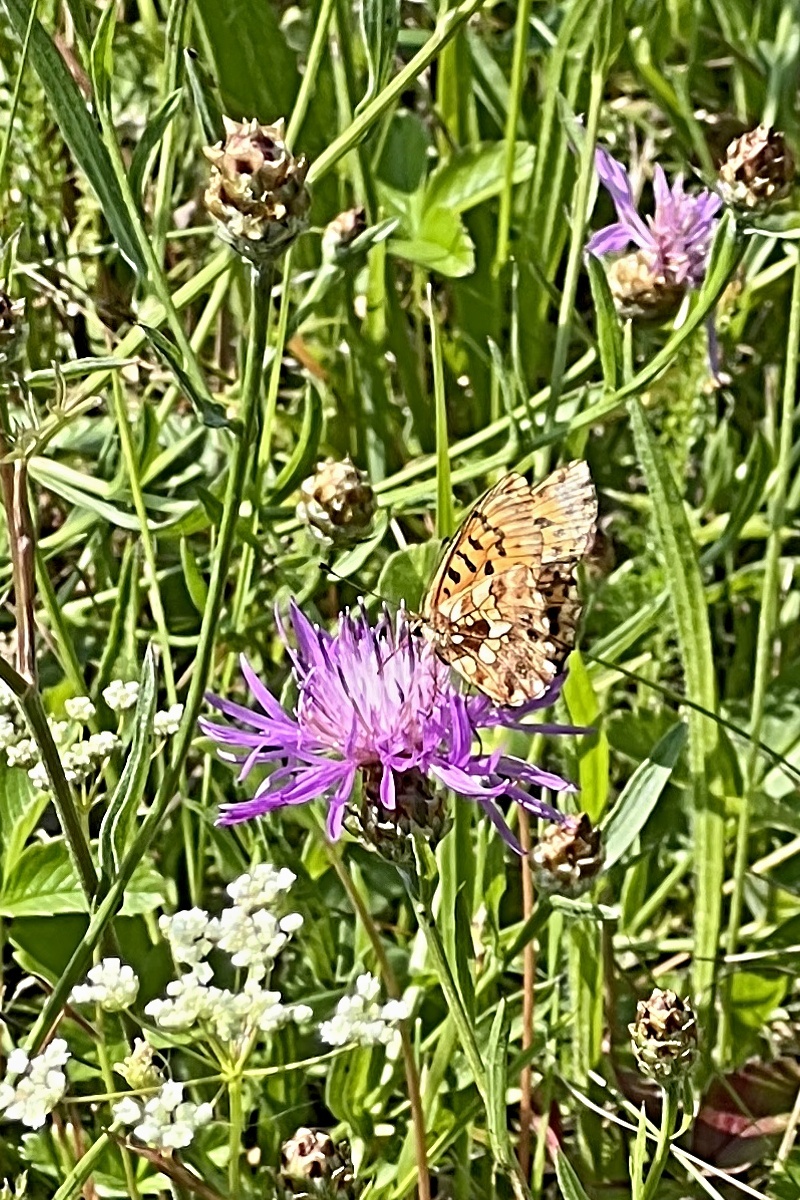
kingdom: Animalia
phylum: Arthropoda
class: Insecta
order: Lepidoptera
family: Nymphalidae
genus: Boloria
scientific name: Boloria dia
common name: Weaver's fritillary
